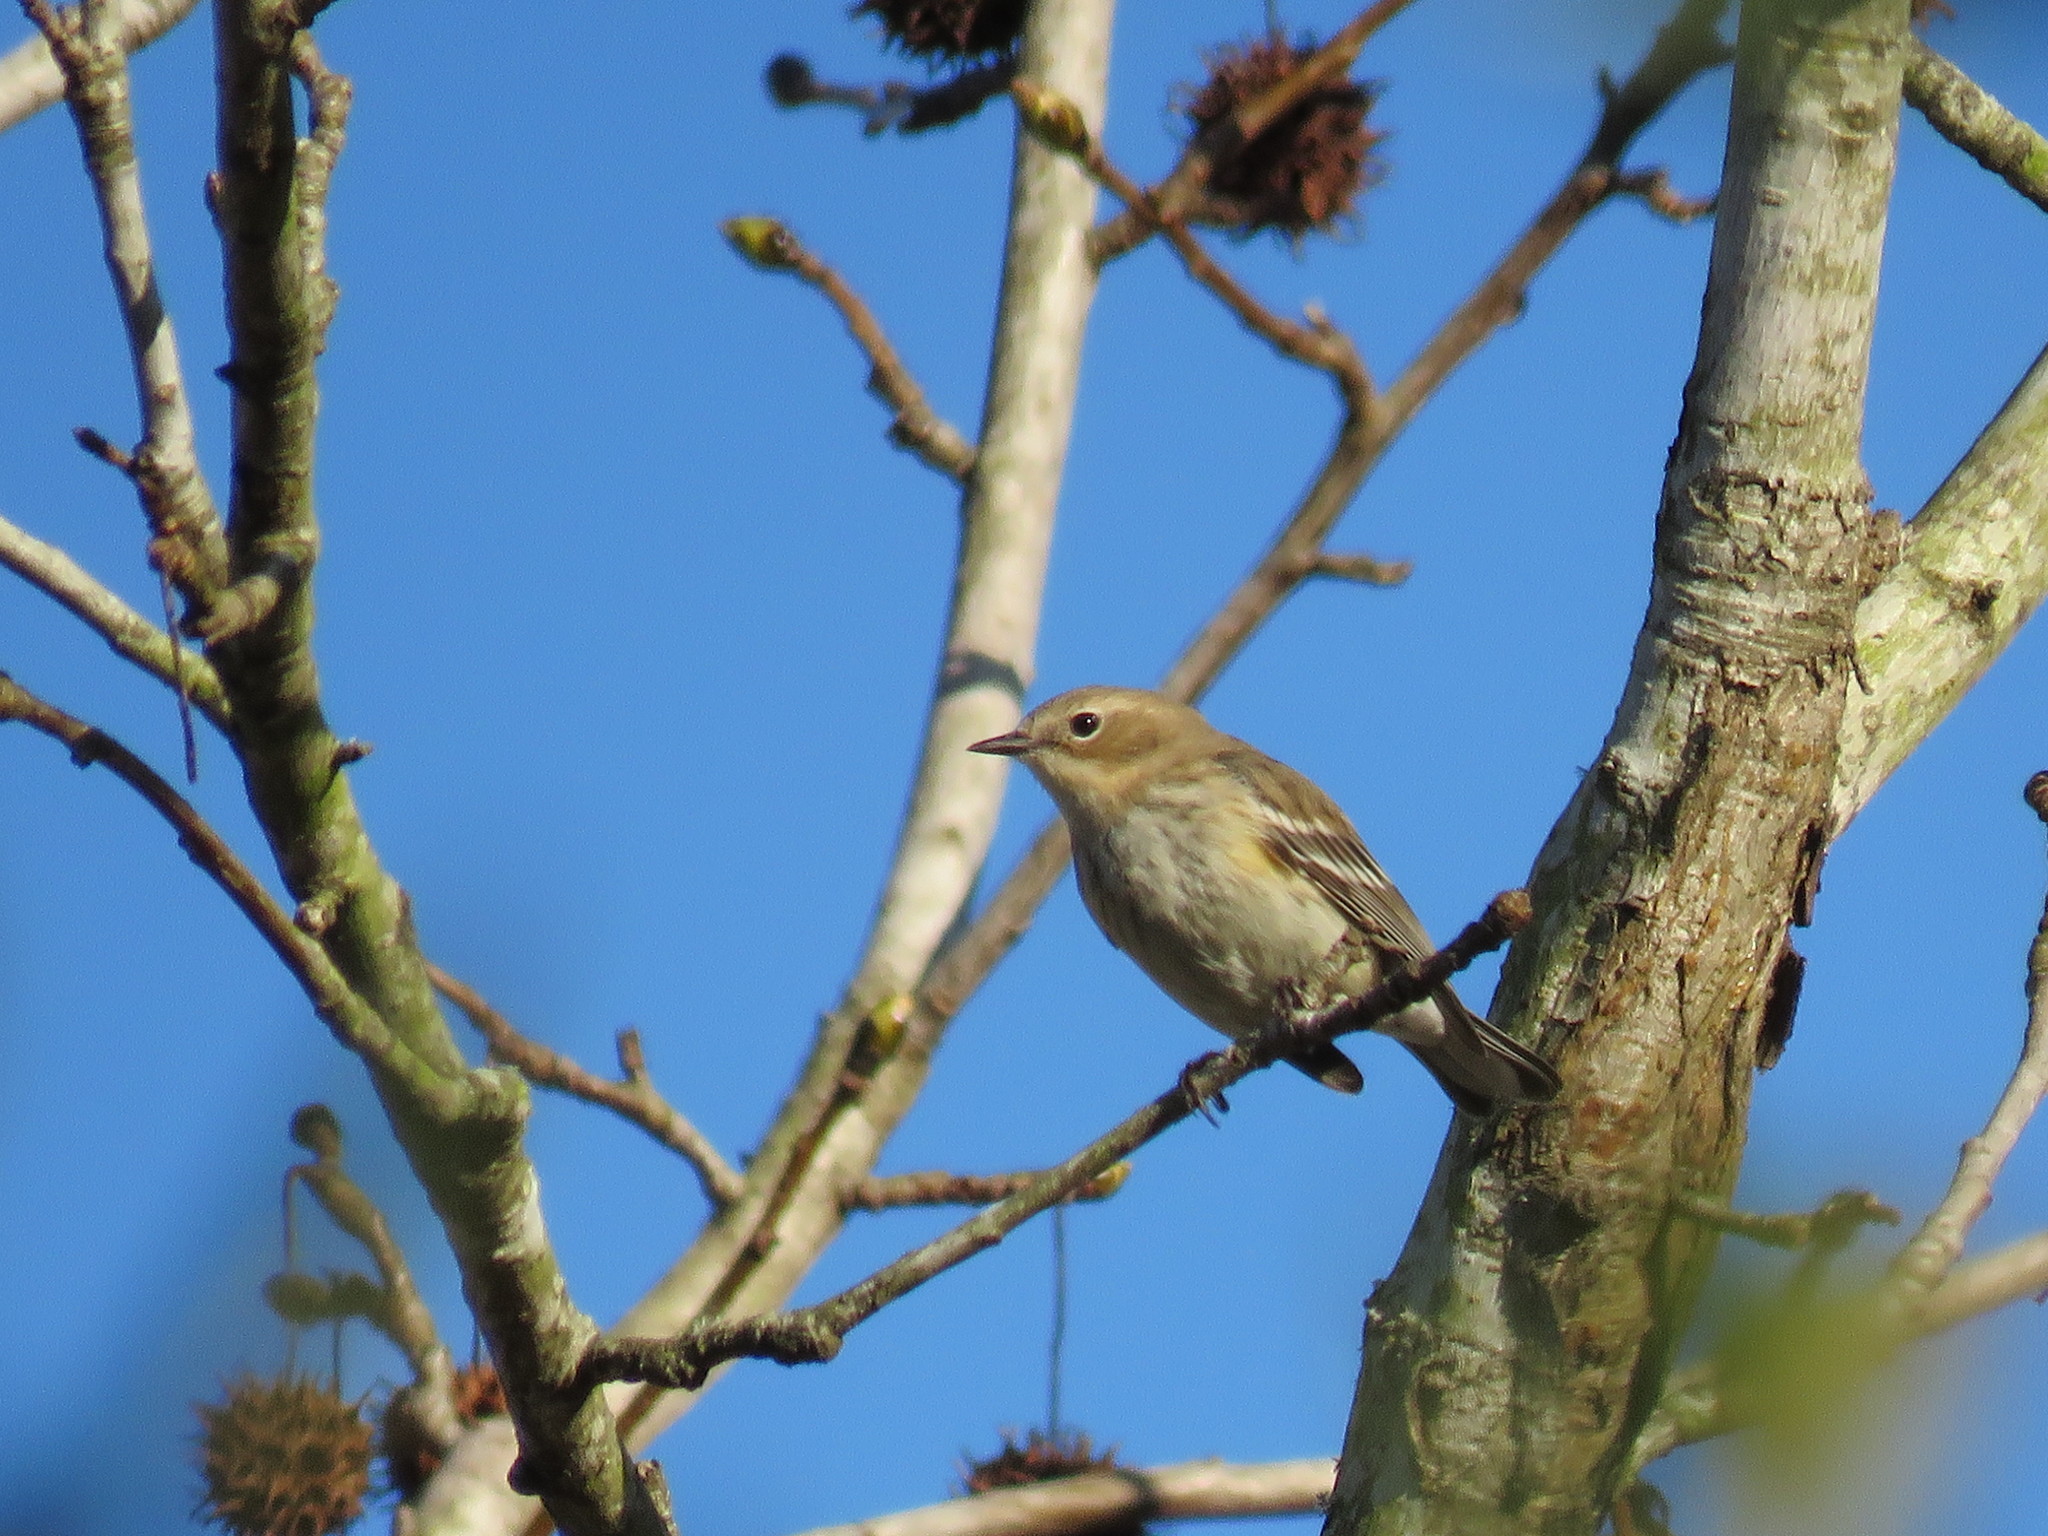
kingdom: Animalia
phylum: Chordata
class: Aves
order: Passeriformes
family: Parulidae
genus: Setophaga
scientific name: Setophaga coronata
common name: Myrtle warbler
